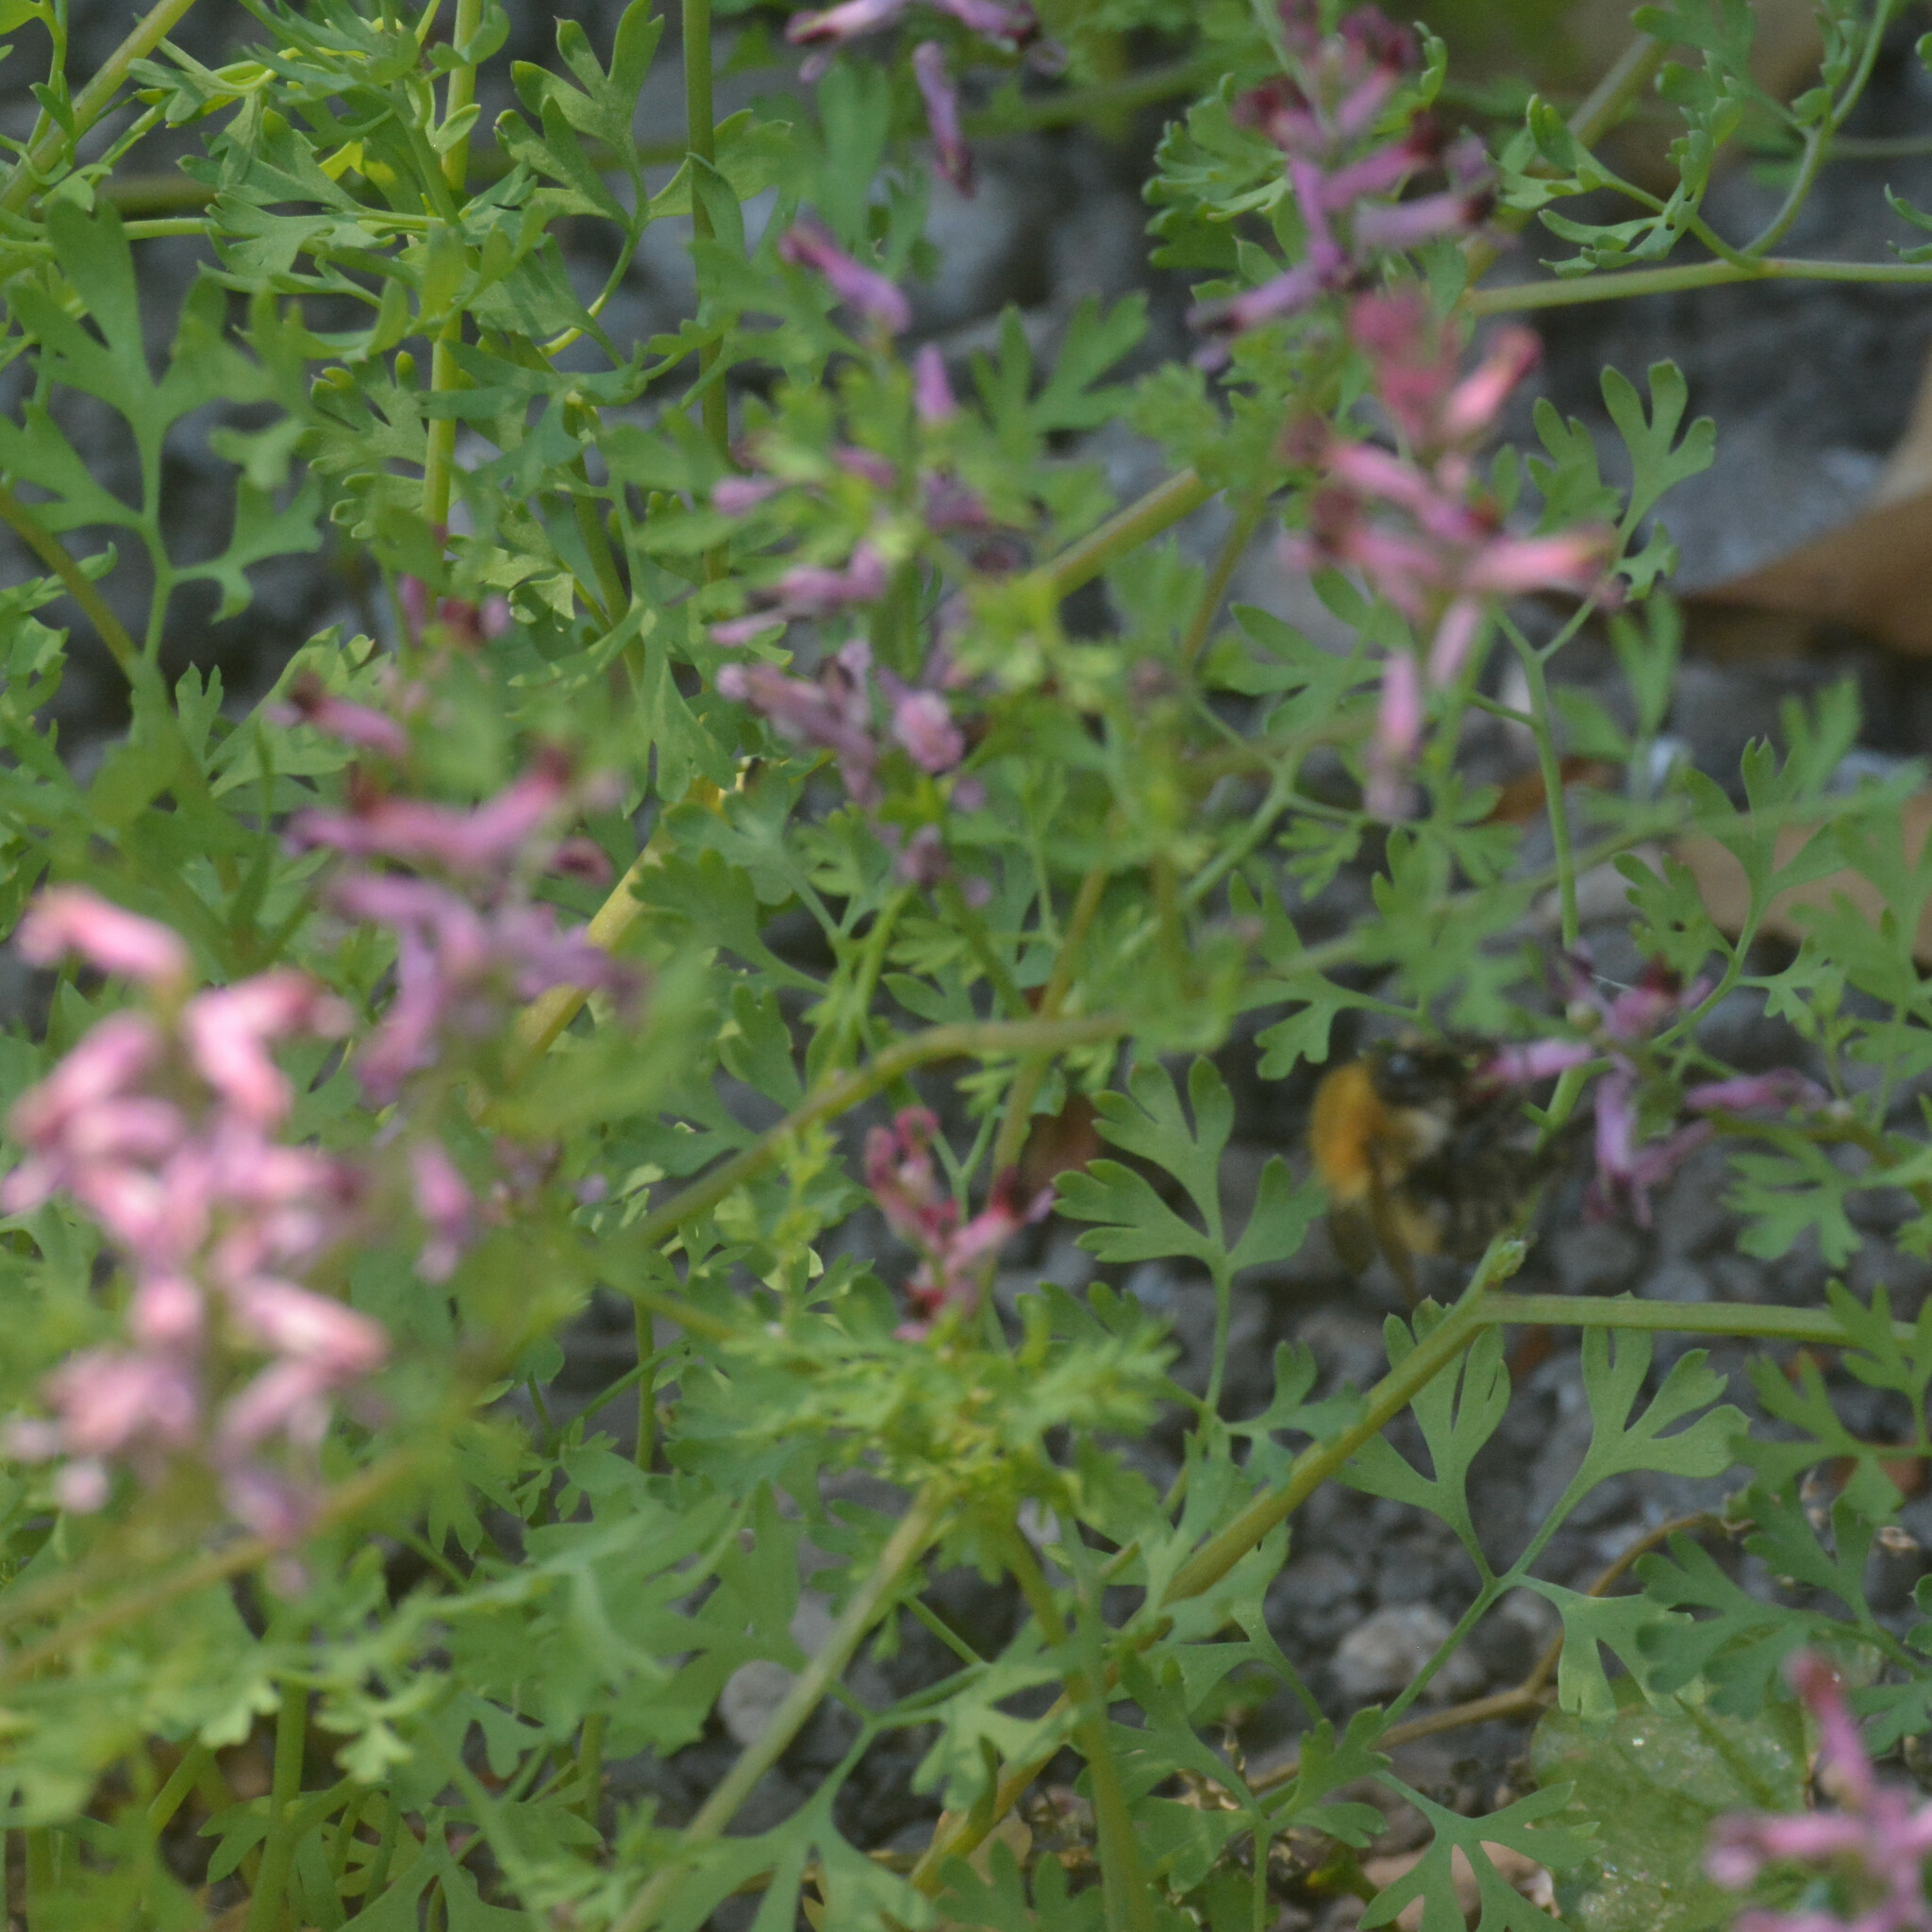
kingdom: Plantae
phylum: Tracheophyta
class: Magnoliopsida
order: Ranunculales
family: Papaveraceae
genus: Fumaria
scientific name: Fumaria officinalis
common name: Common fumitory
